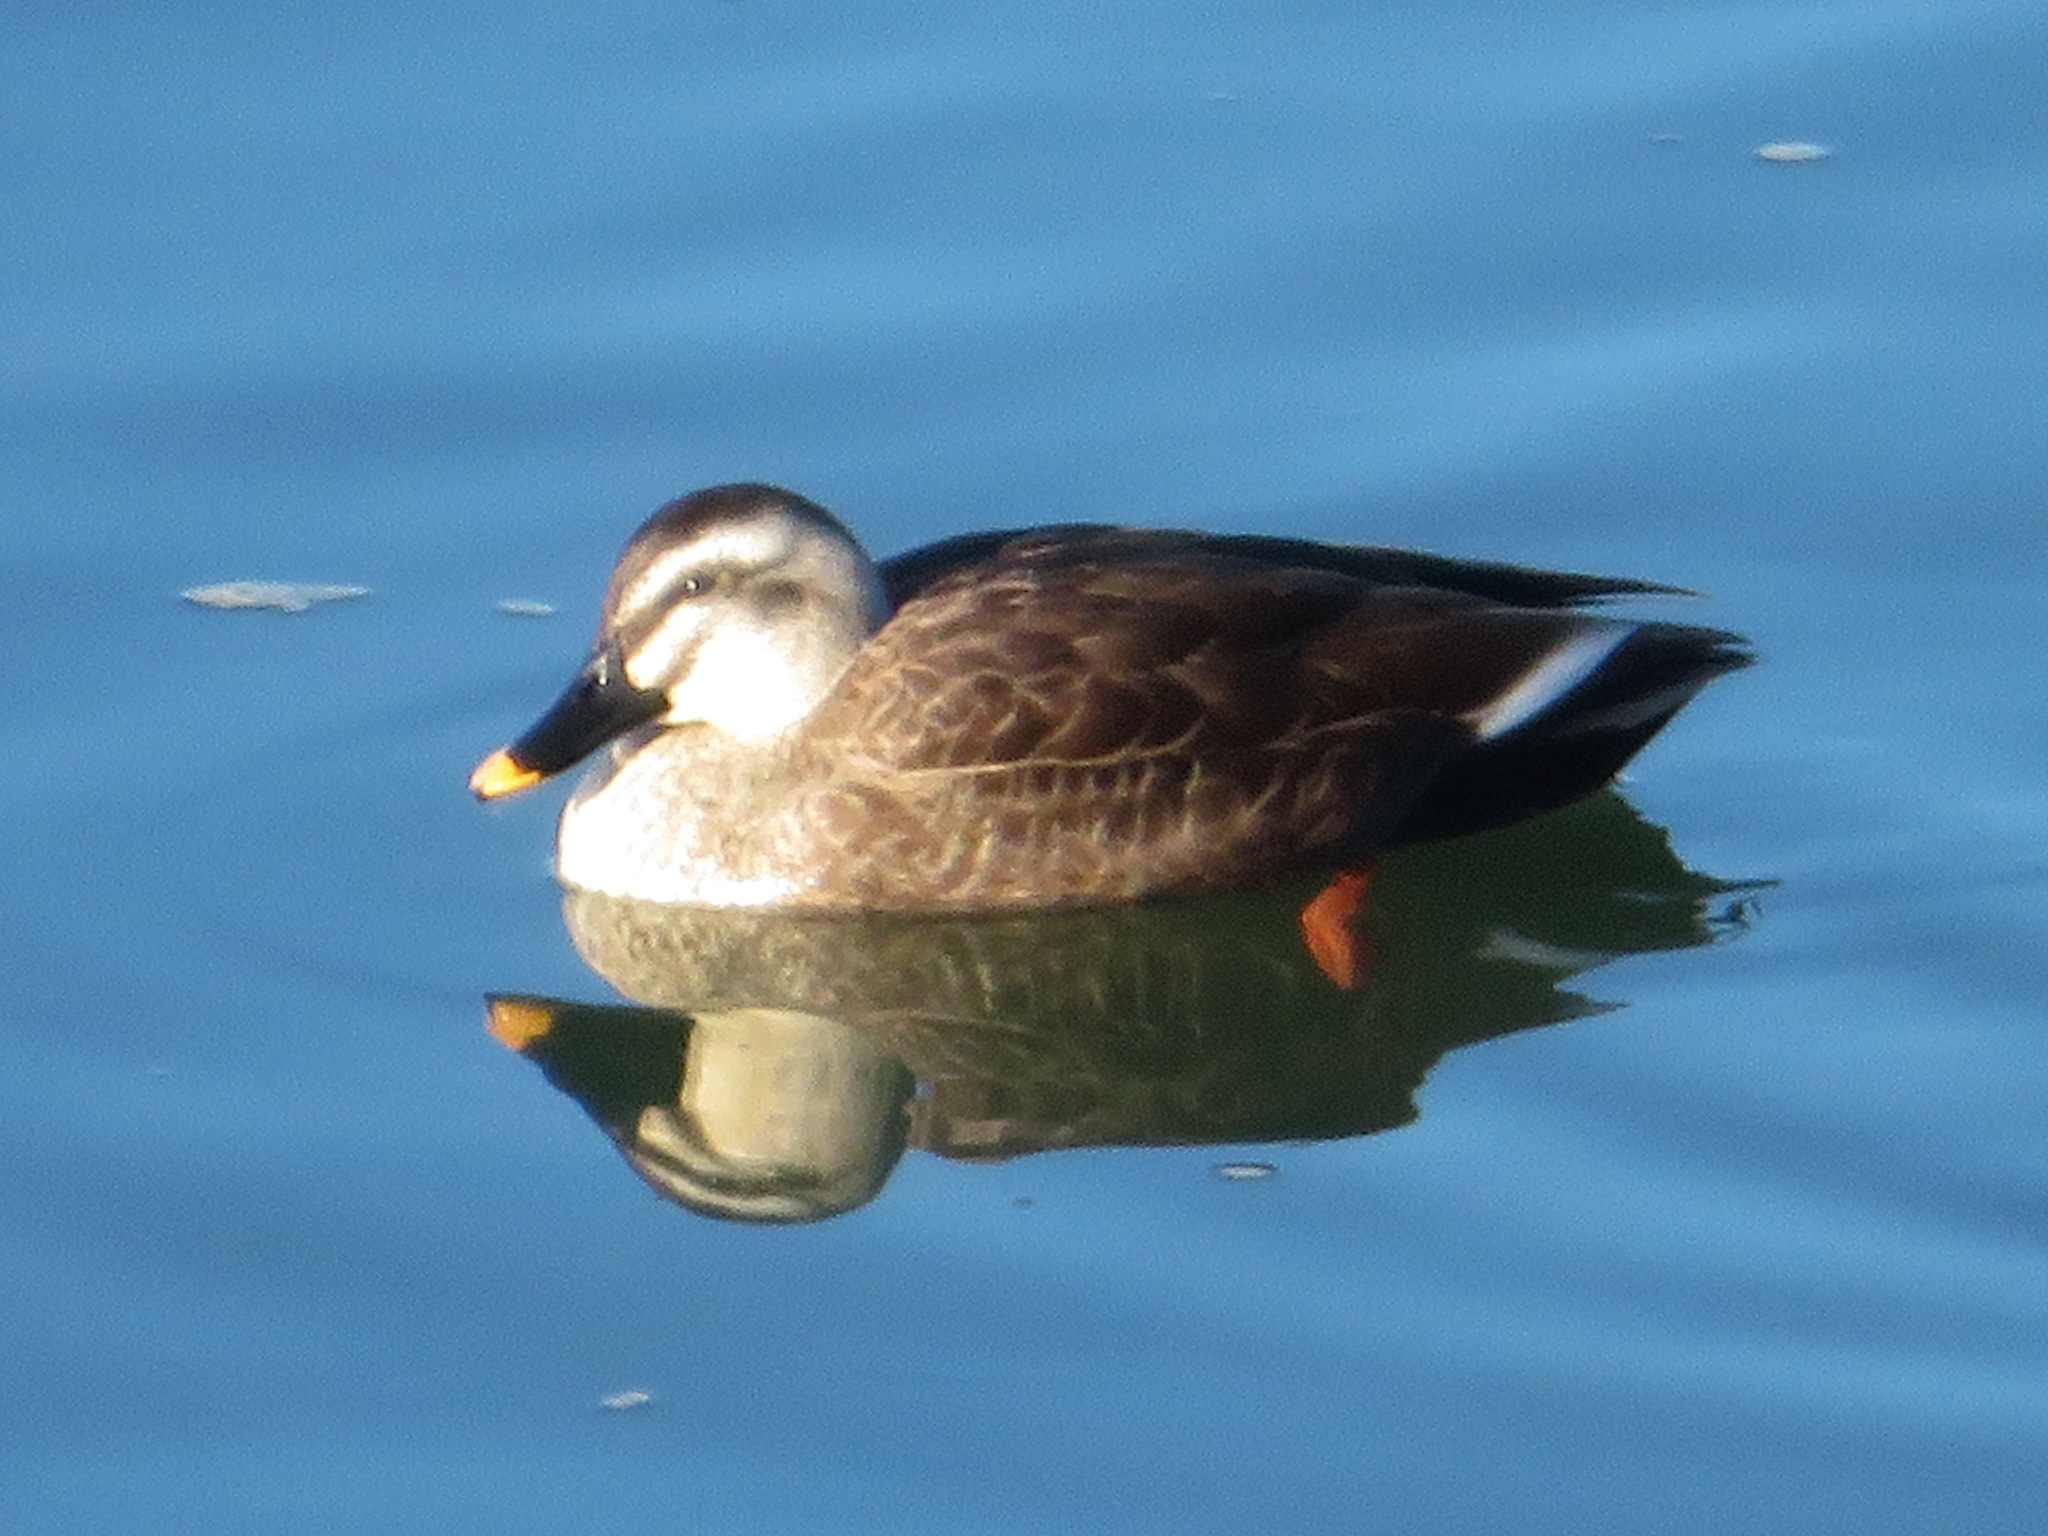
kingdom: Animalia
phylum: Chordata
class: Aves
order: Anseriformes
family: Anatidae
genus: Anas
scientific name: Anas zonorhyncha
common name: Eastern spot-billed duck
